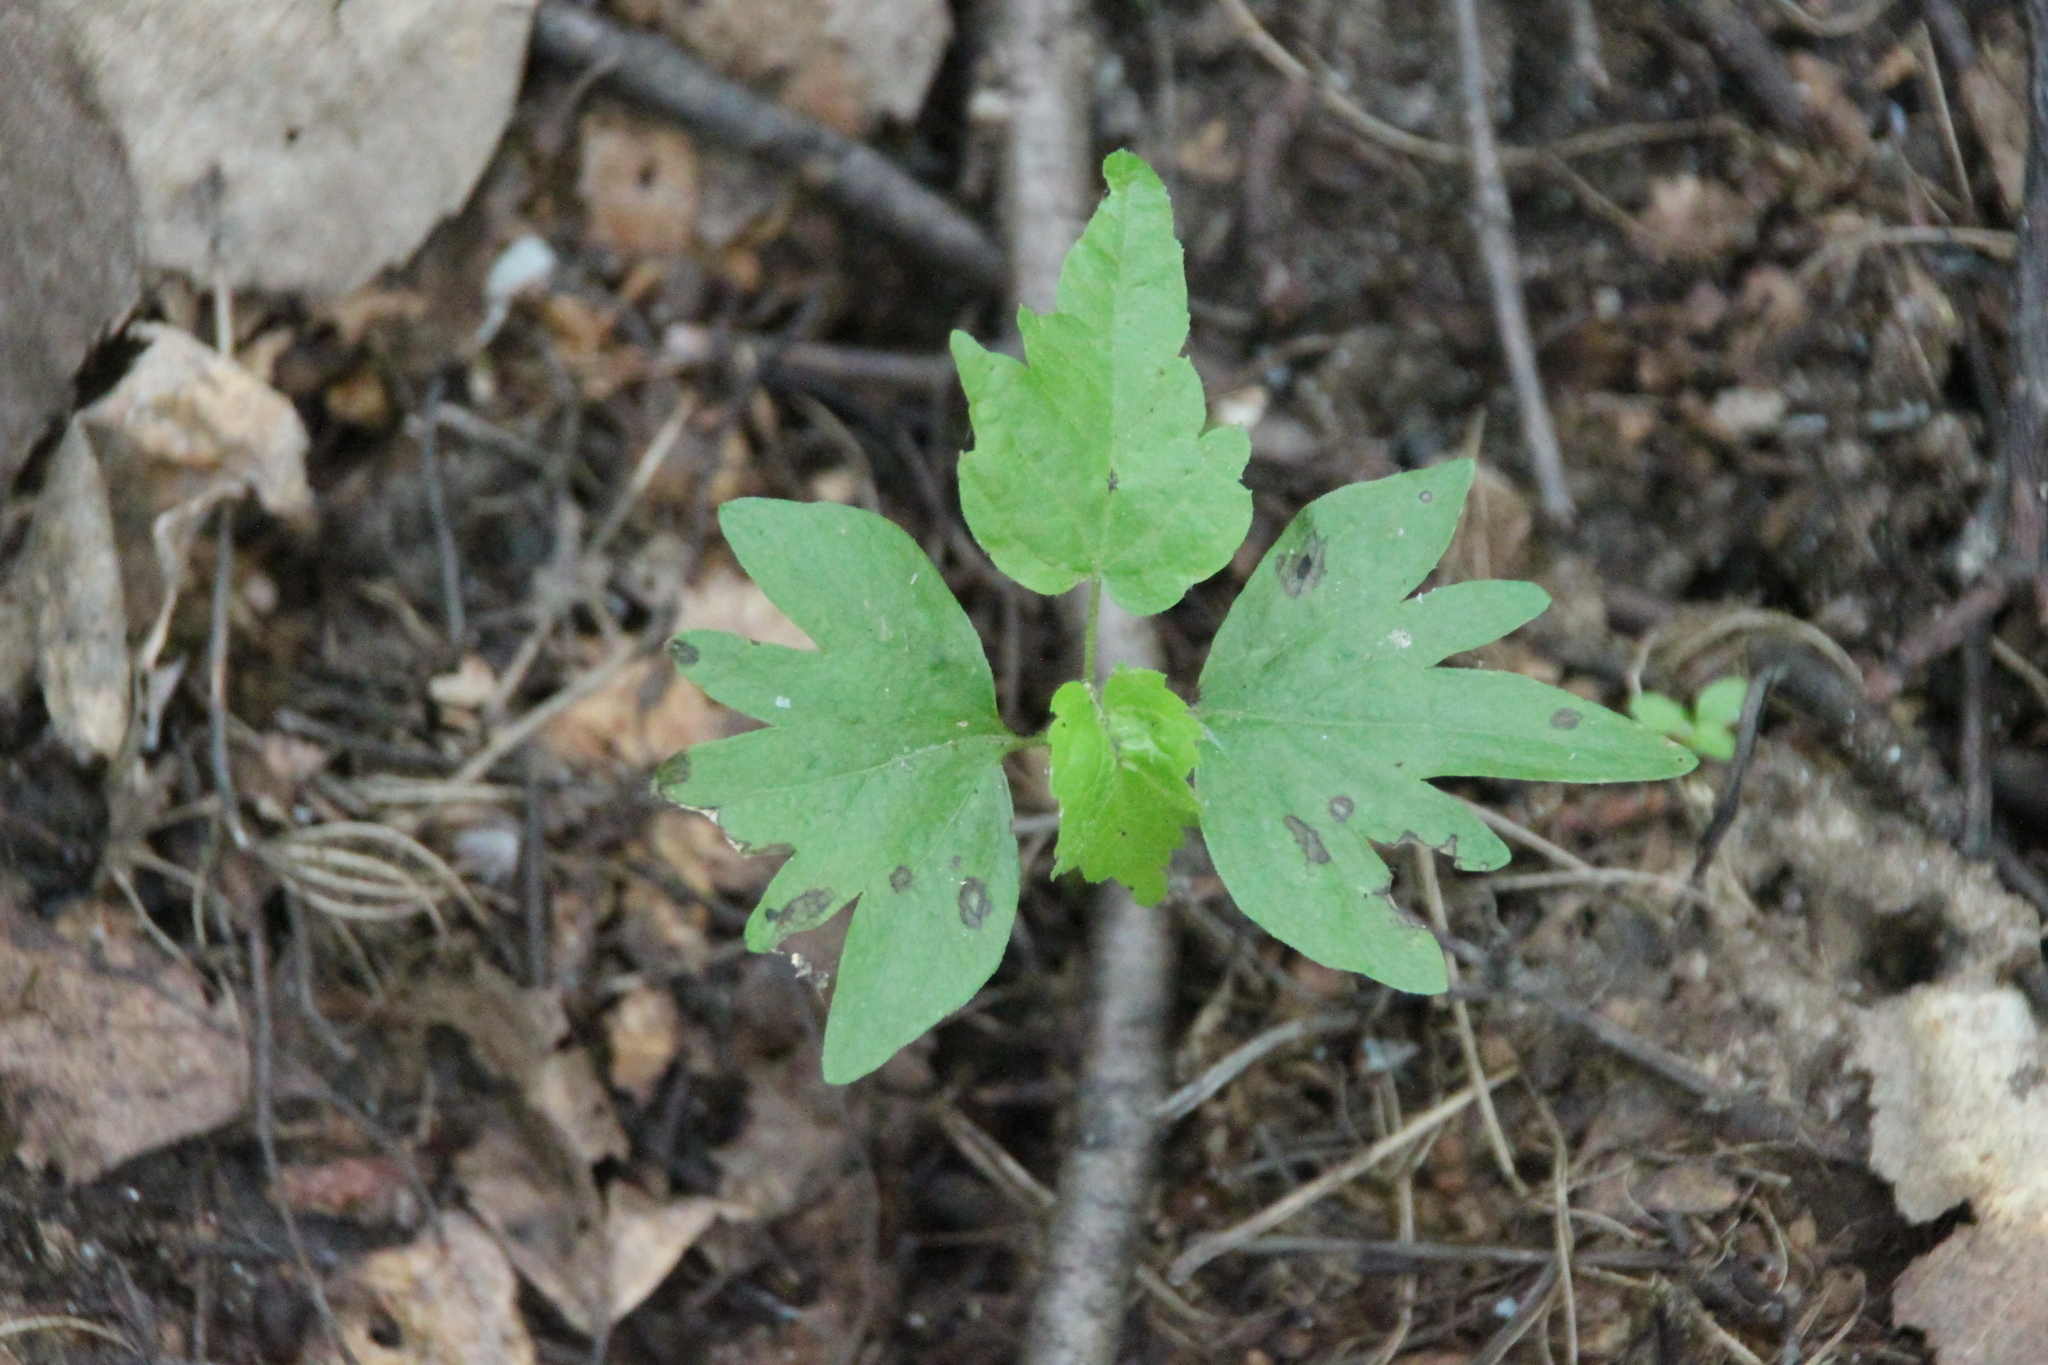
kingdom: Plantae
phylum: Tracheophyta
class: Magnoliopsida
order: Malvales
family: Malvaceae
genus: Tilia
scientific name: Tilia cordata
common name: Small-leaved lime
